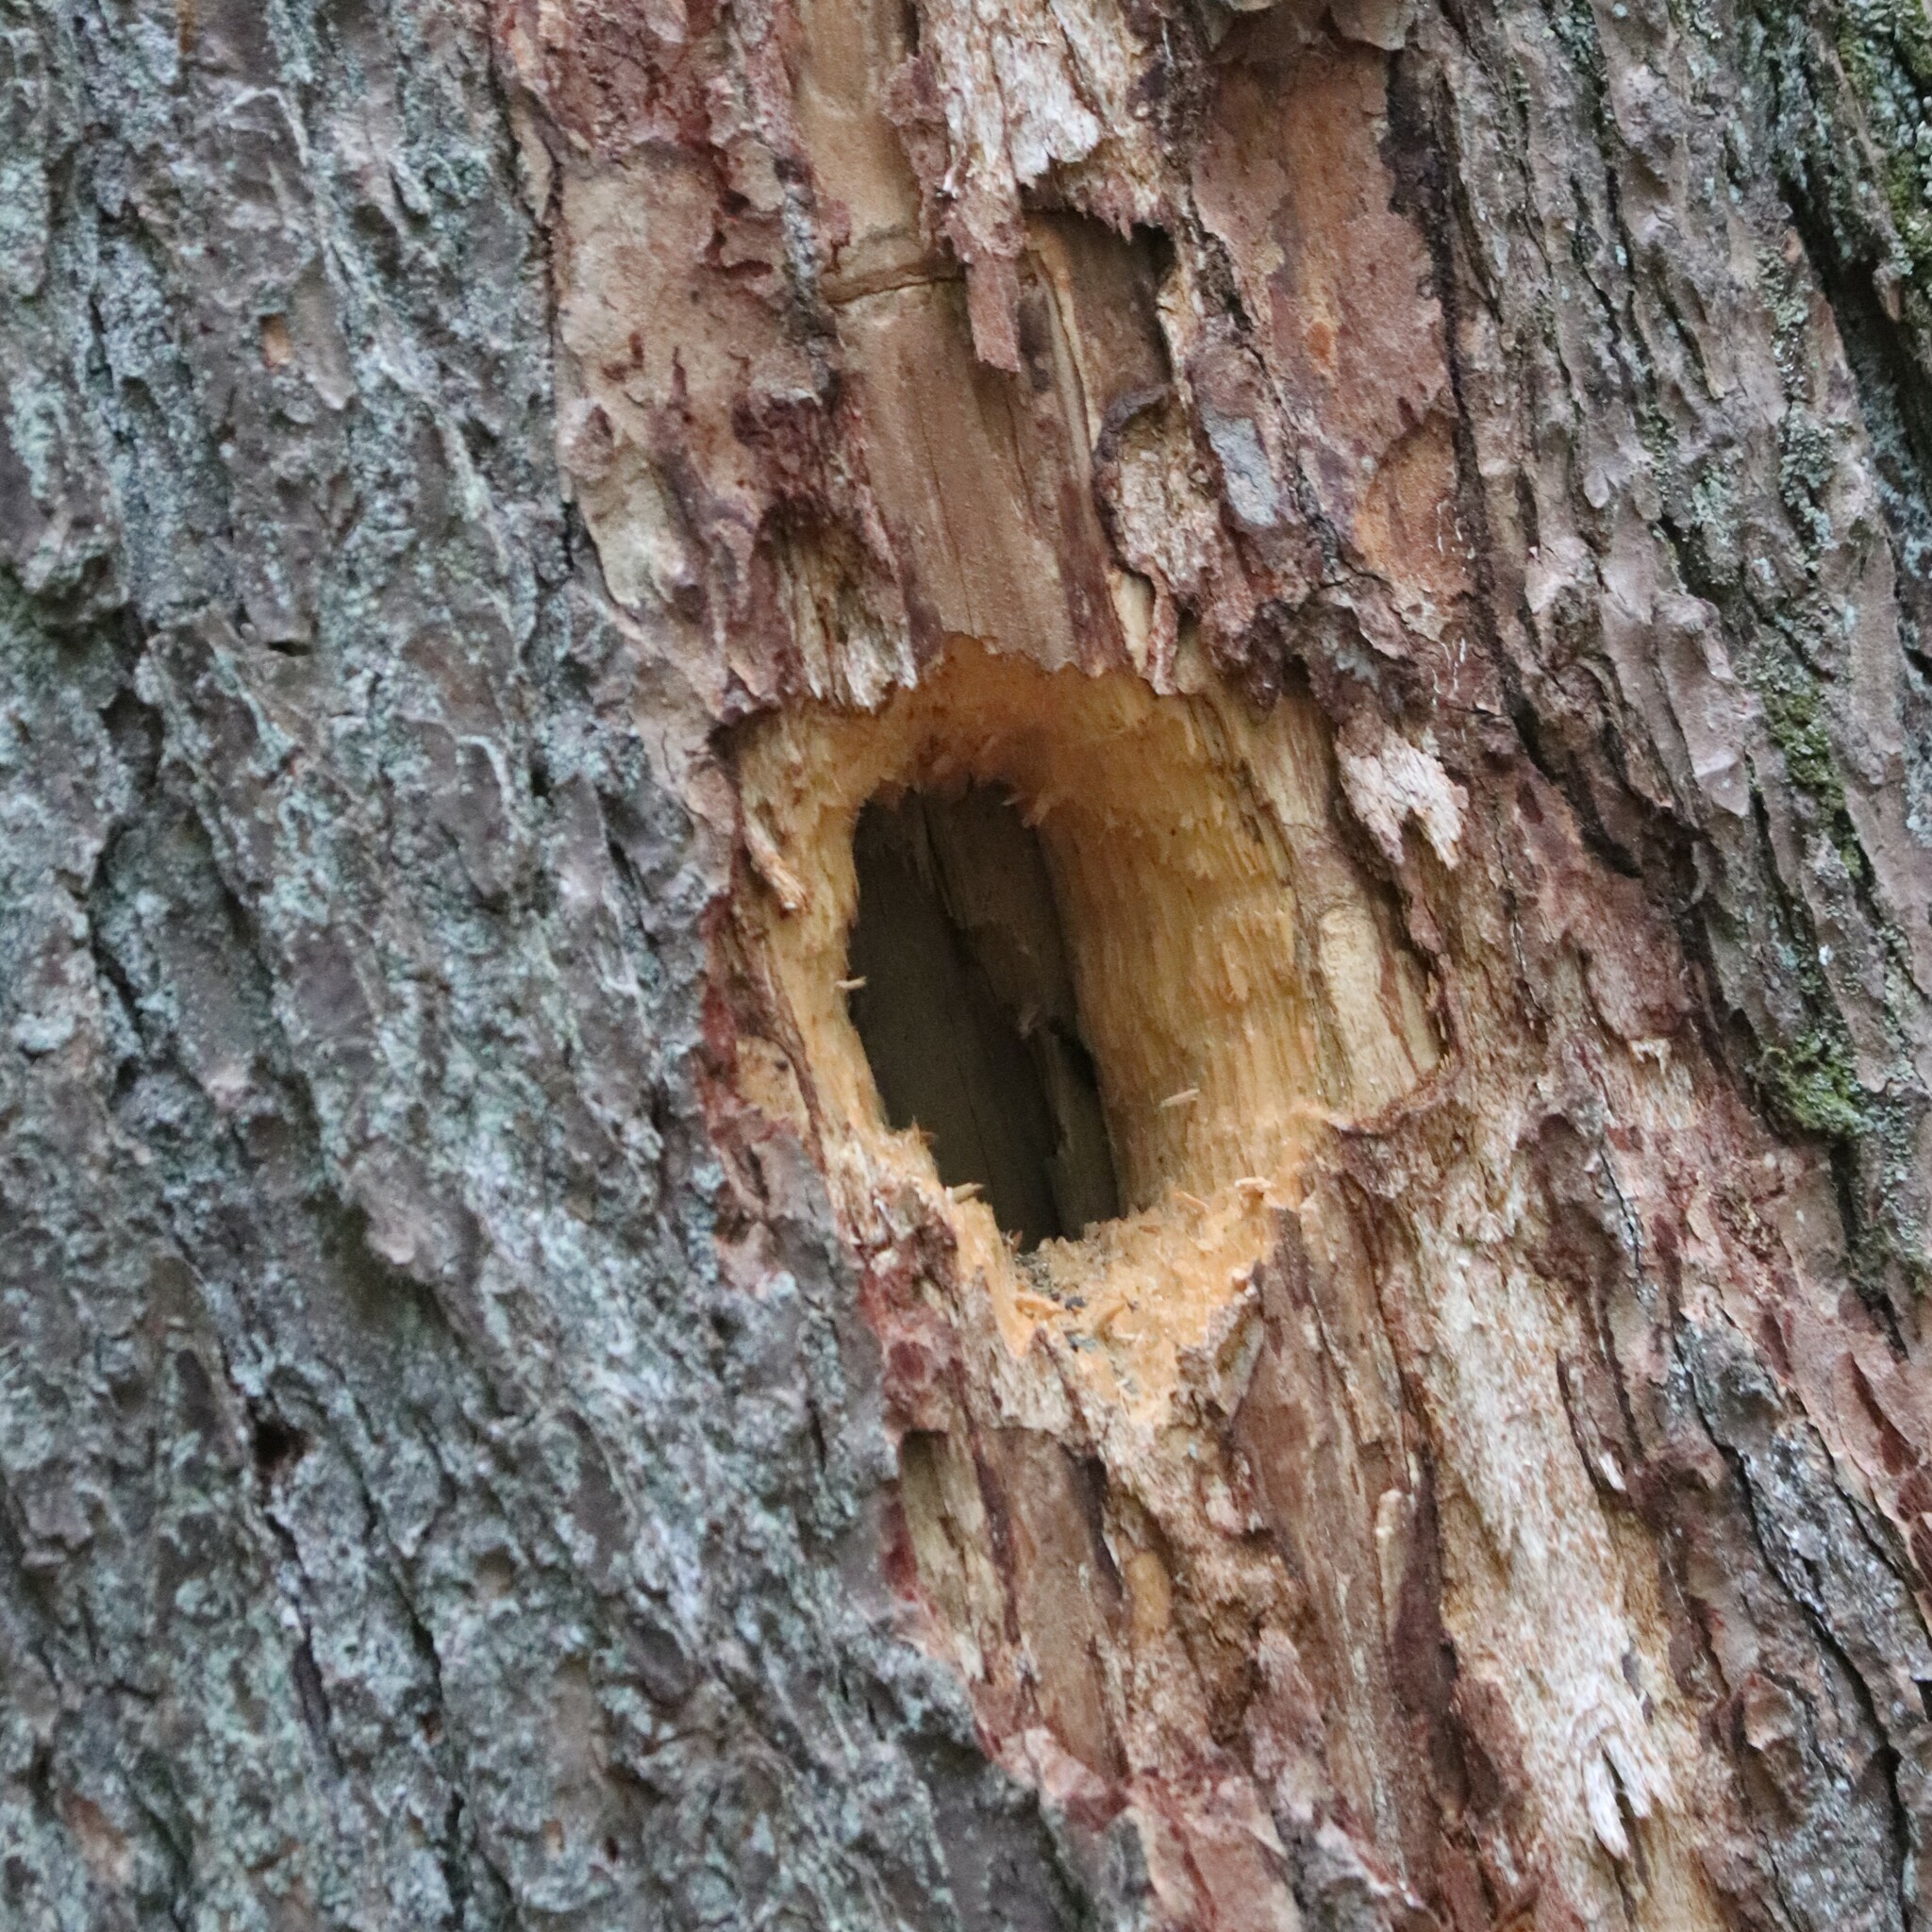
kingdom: Animalia
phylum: Chordata
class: Aves
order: Piciformes
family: Picidae
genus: Dryocopus
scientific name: Dryocopus pileatus
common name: Pileated woodpecker
